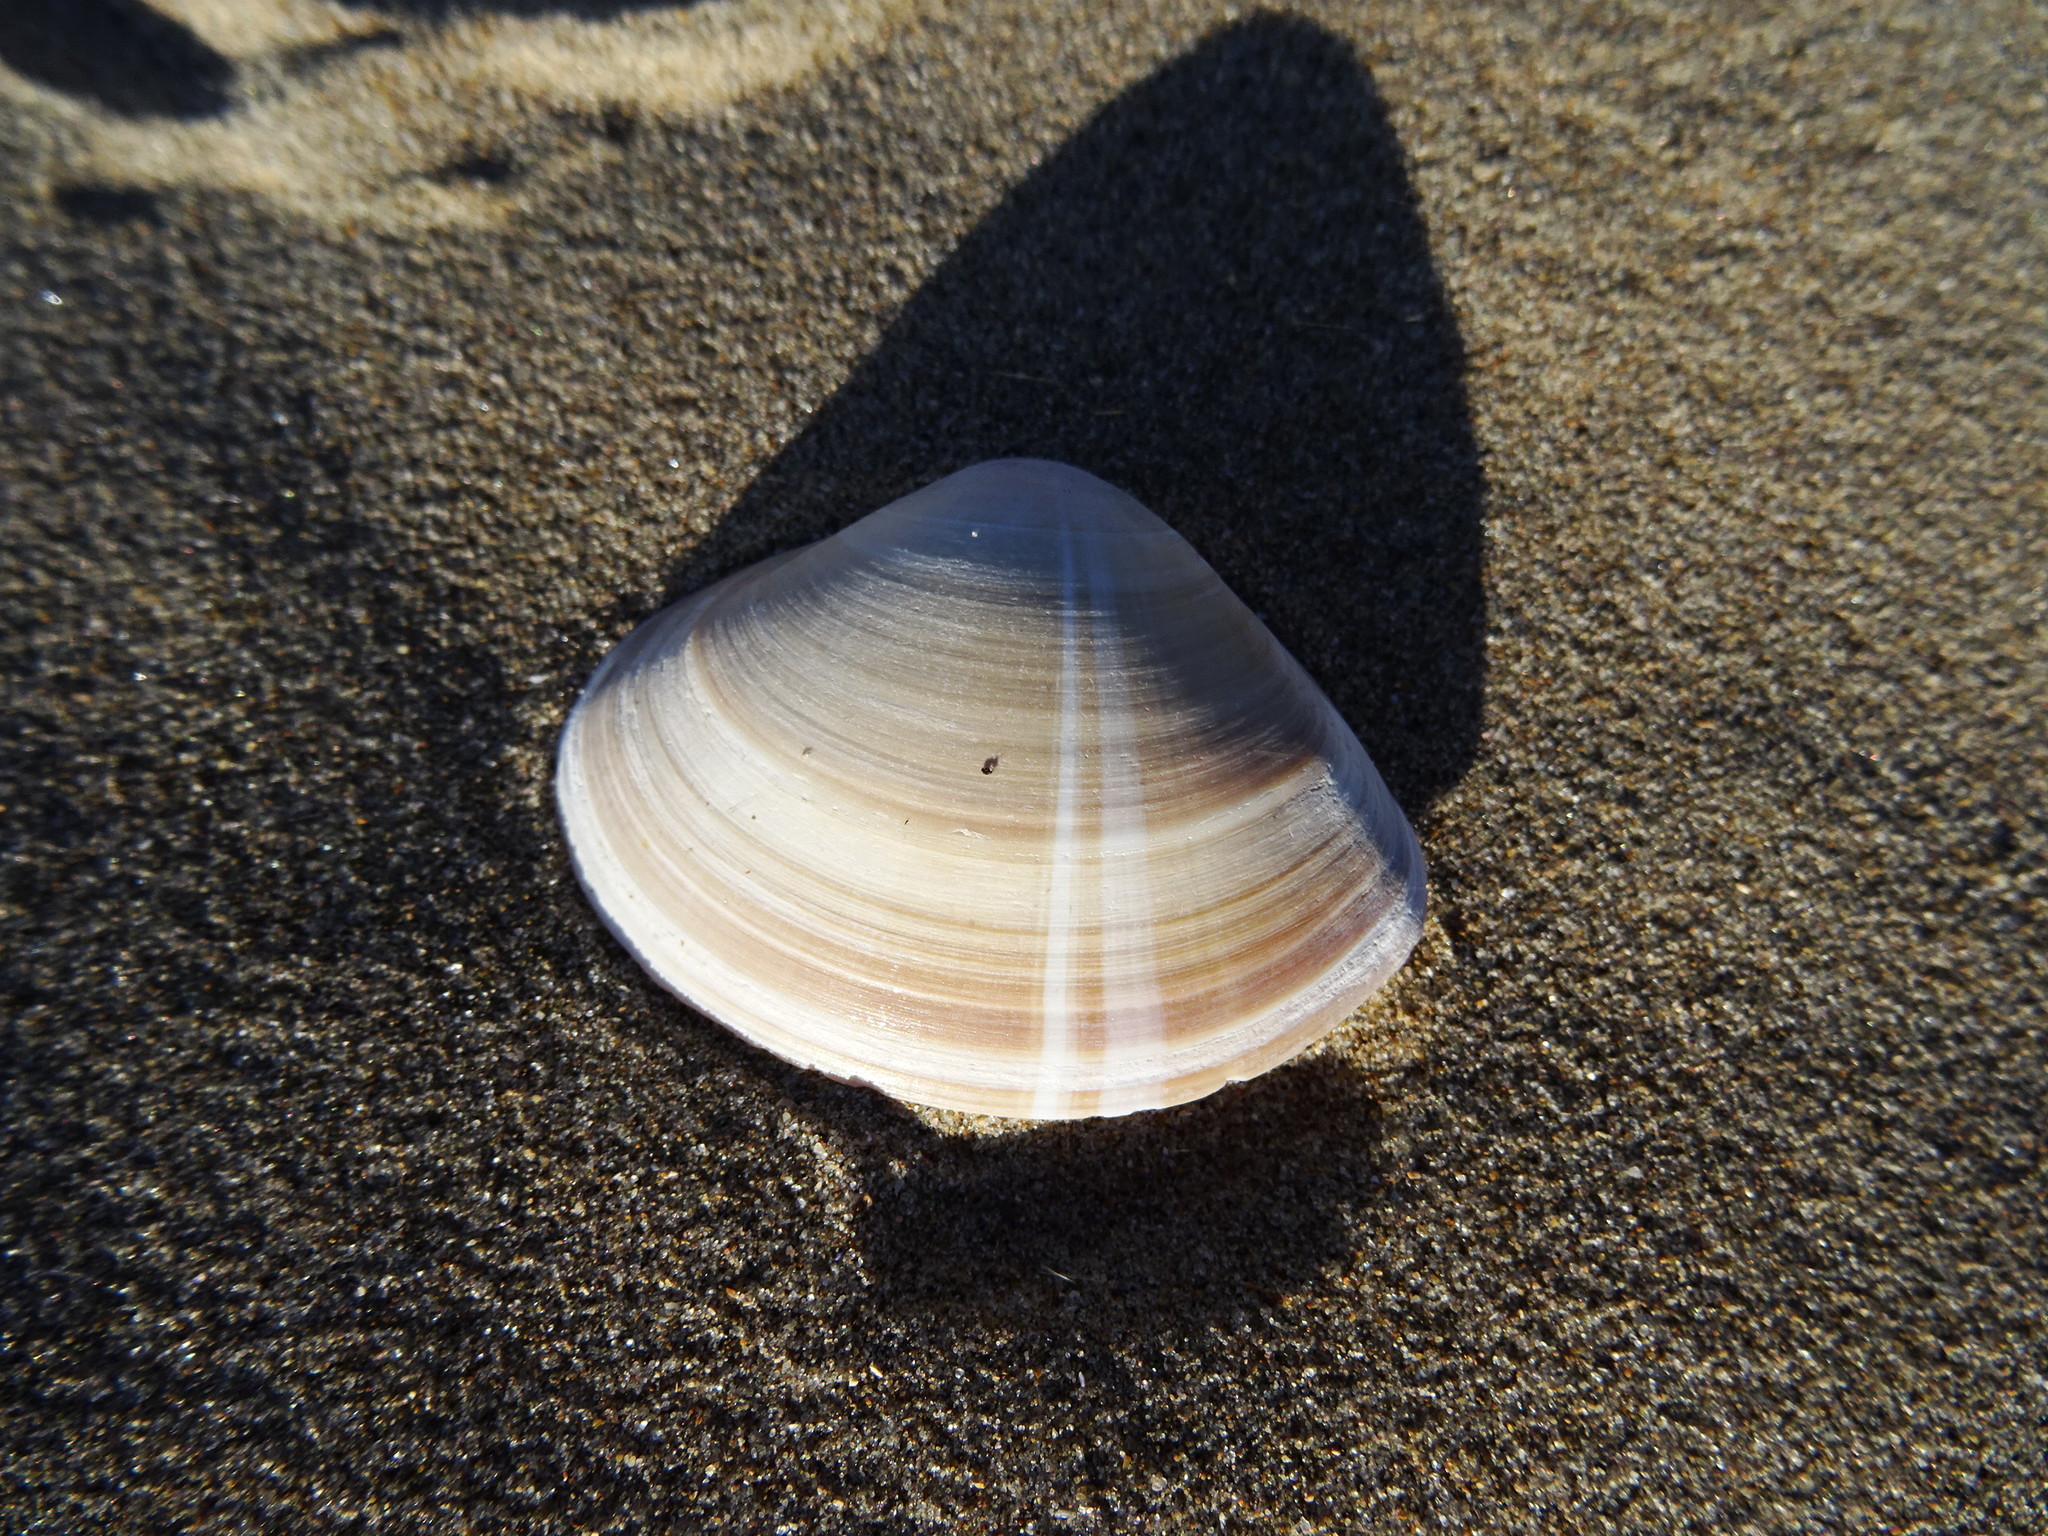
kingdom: Animalia
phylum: Mollusca
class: Bivalvia
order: Venerida
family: Mactridae
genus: Mactra
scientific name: Mactra stultorum
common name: Rayed trough shell
